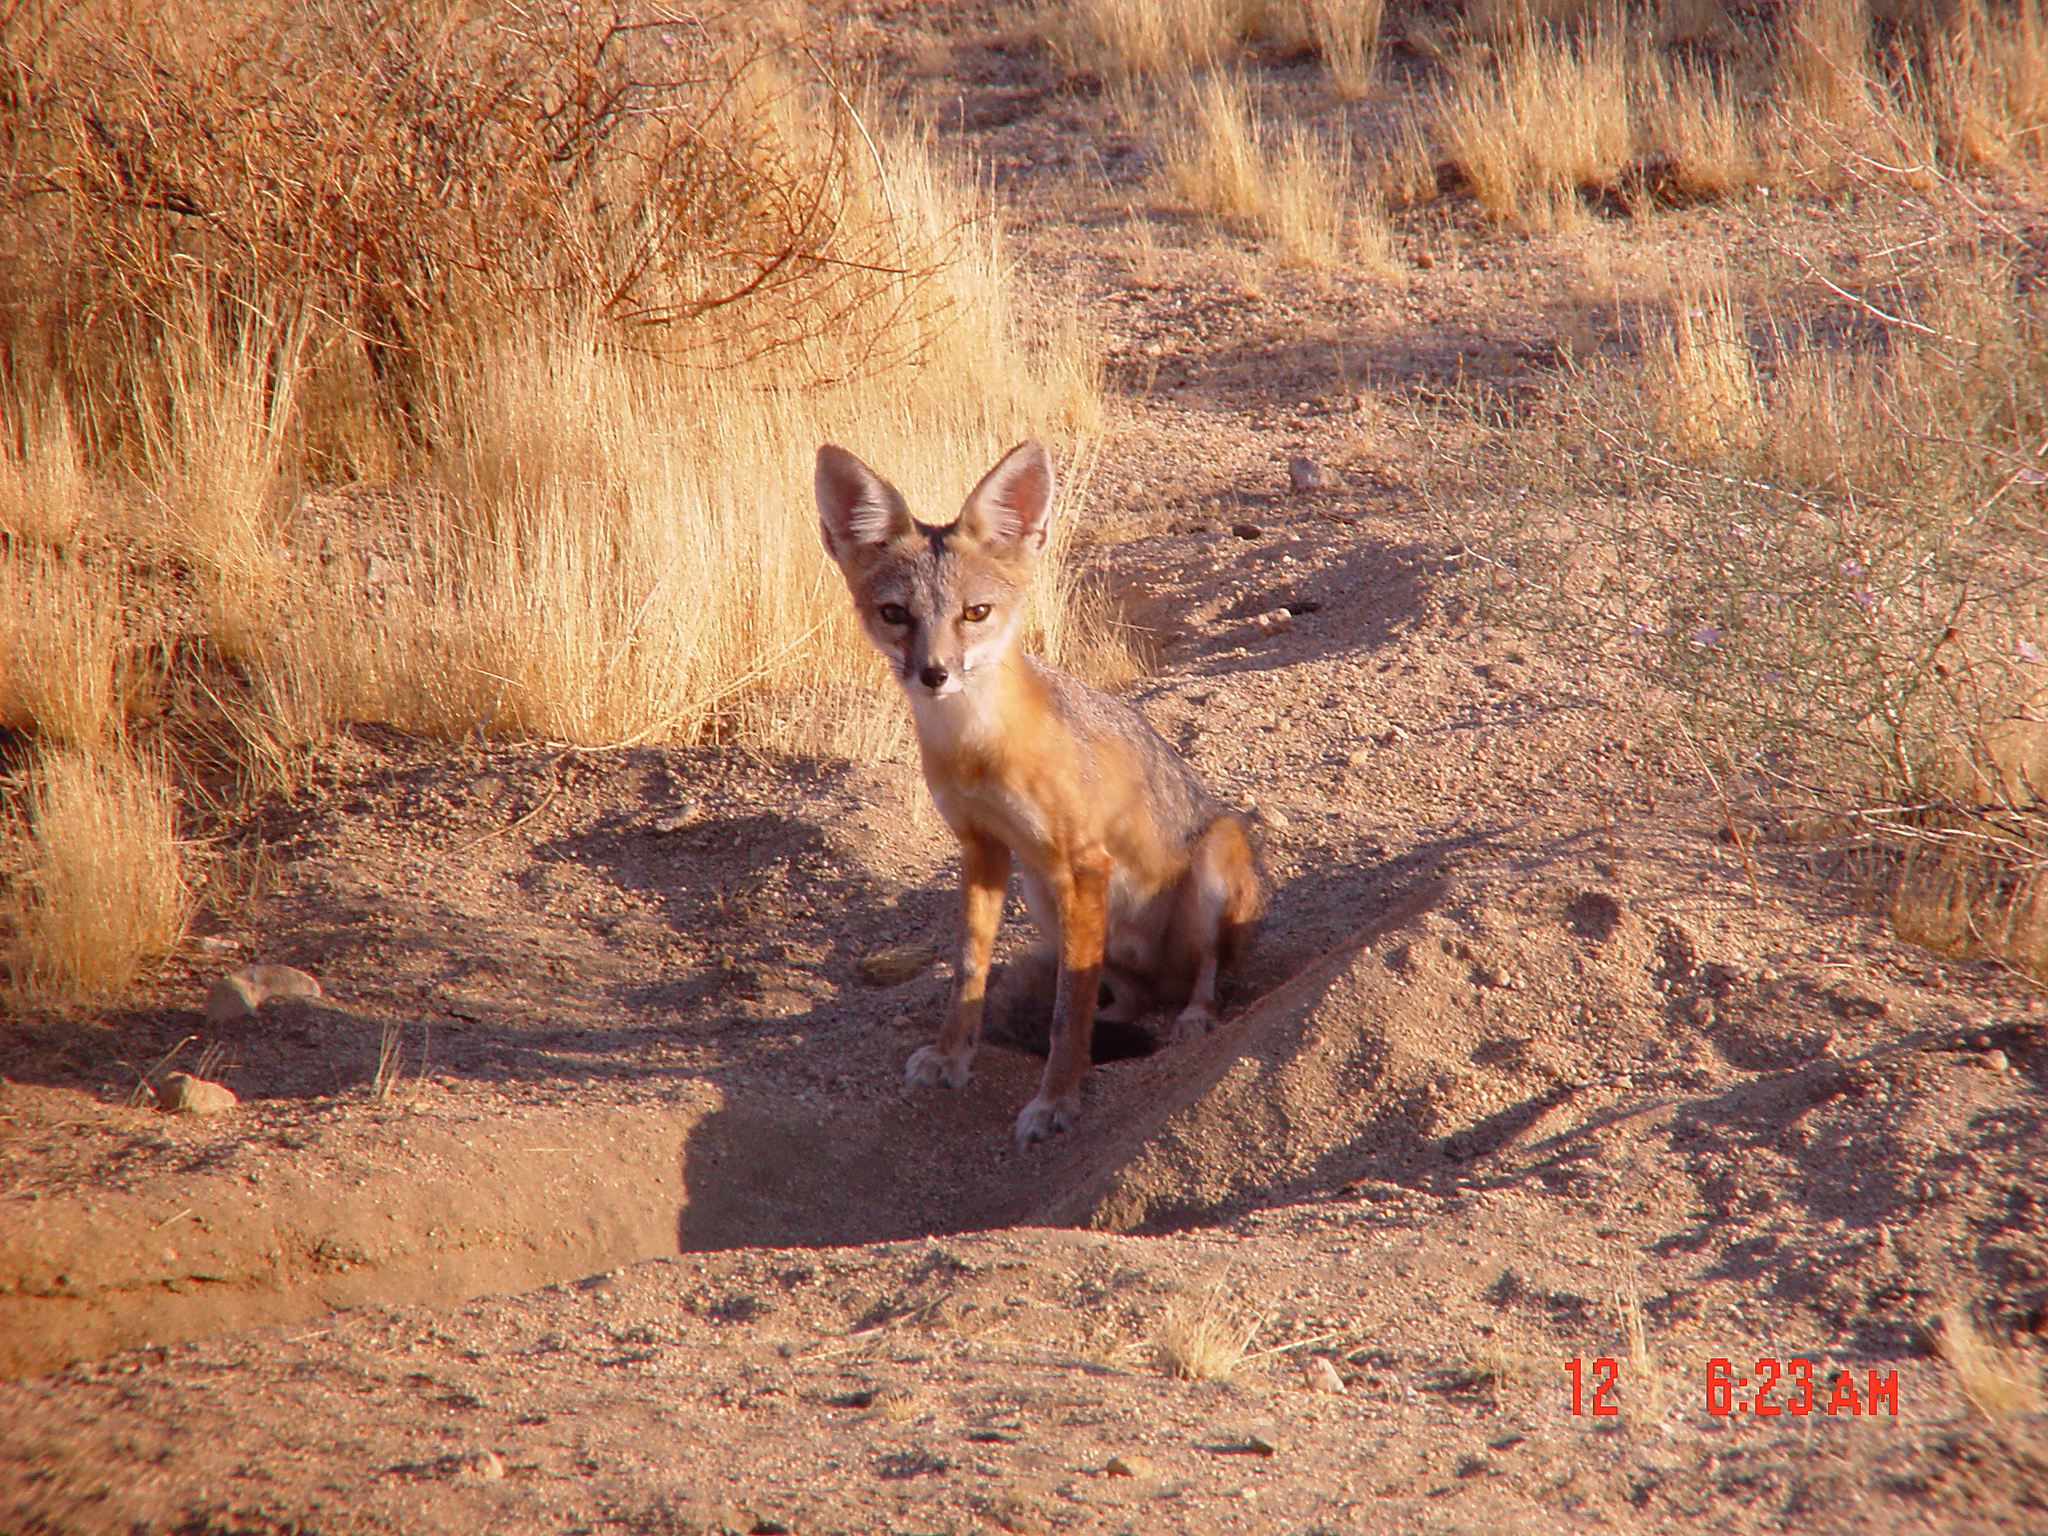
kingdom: Animalia
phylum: Chordata
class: Mammalia
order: Carnivora
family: Canidae
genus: Vulpes
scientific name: Vulpes macrotis
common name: Kit fox
